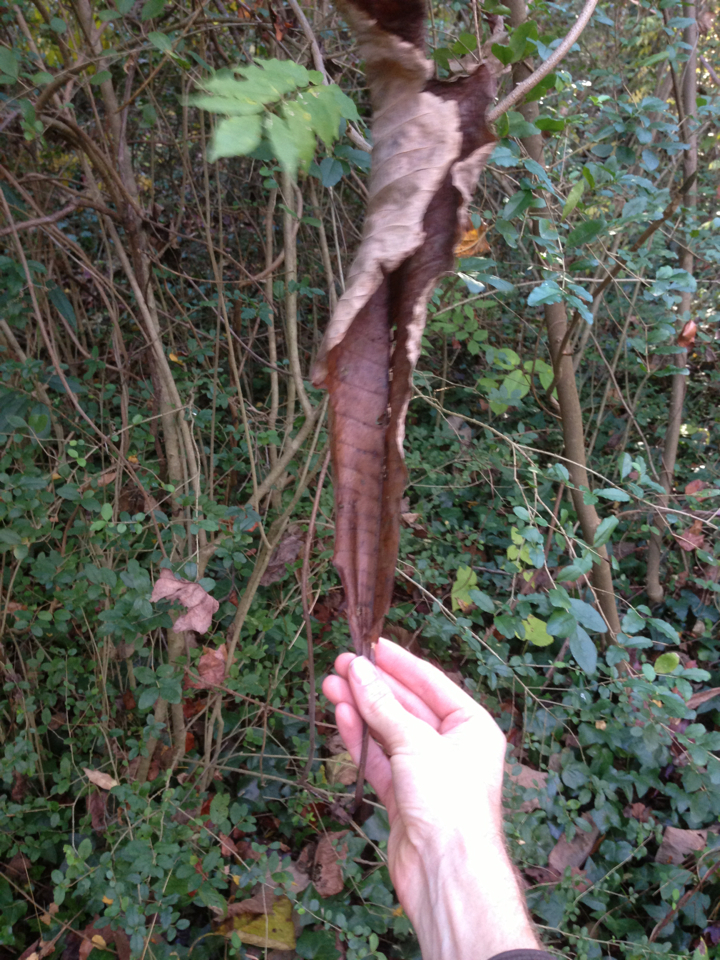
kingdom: Plantae
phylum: Tracheophyta
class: Magnoliopsida
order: Magnoliales
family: Magnoliaceae
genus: Magnolia
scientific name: Magnolia tripetala
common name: Umbrella magnolia
